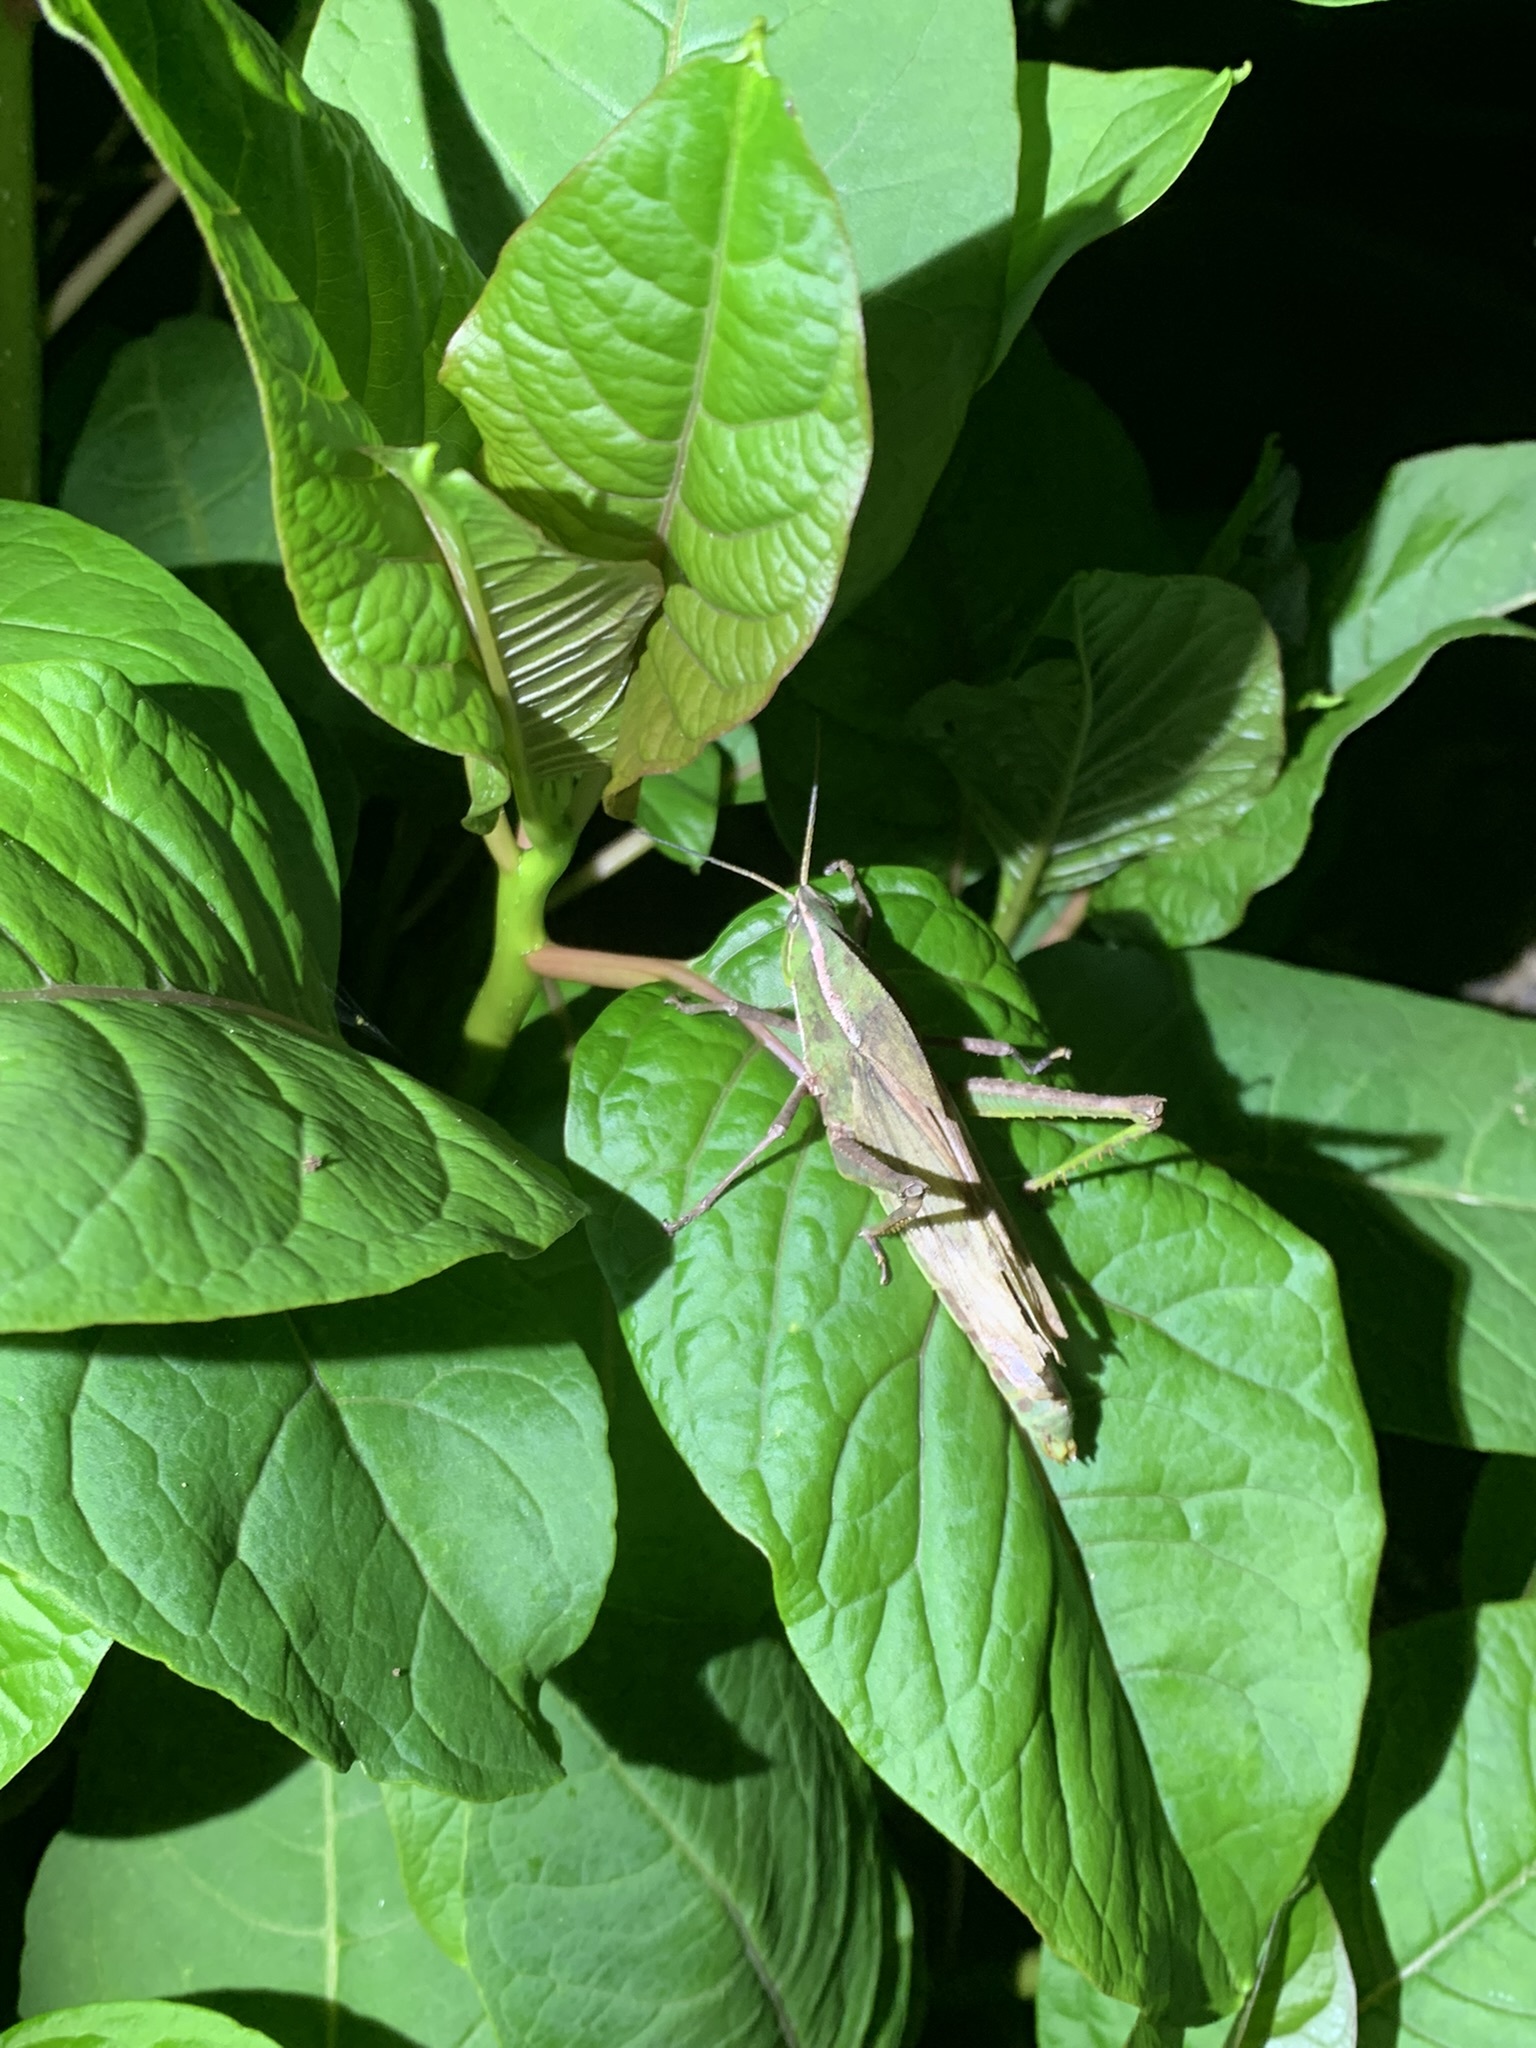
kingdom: Animalia
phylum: Arthropoda
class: Insecta
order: Orthoptera
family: Romaleidae
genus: Prionolopha
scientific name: Prionolopha serrata
